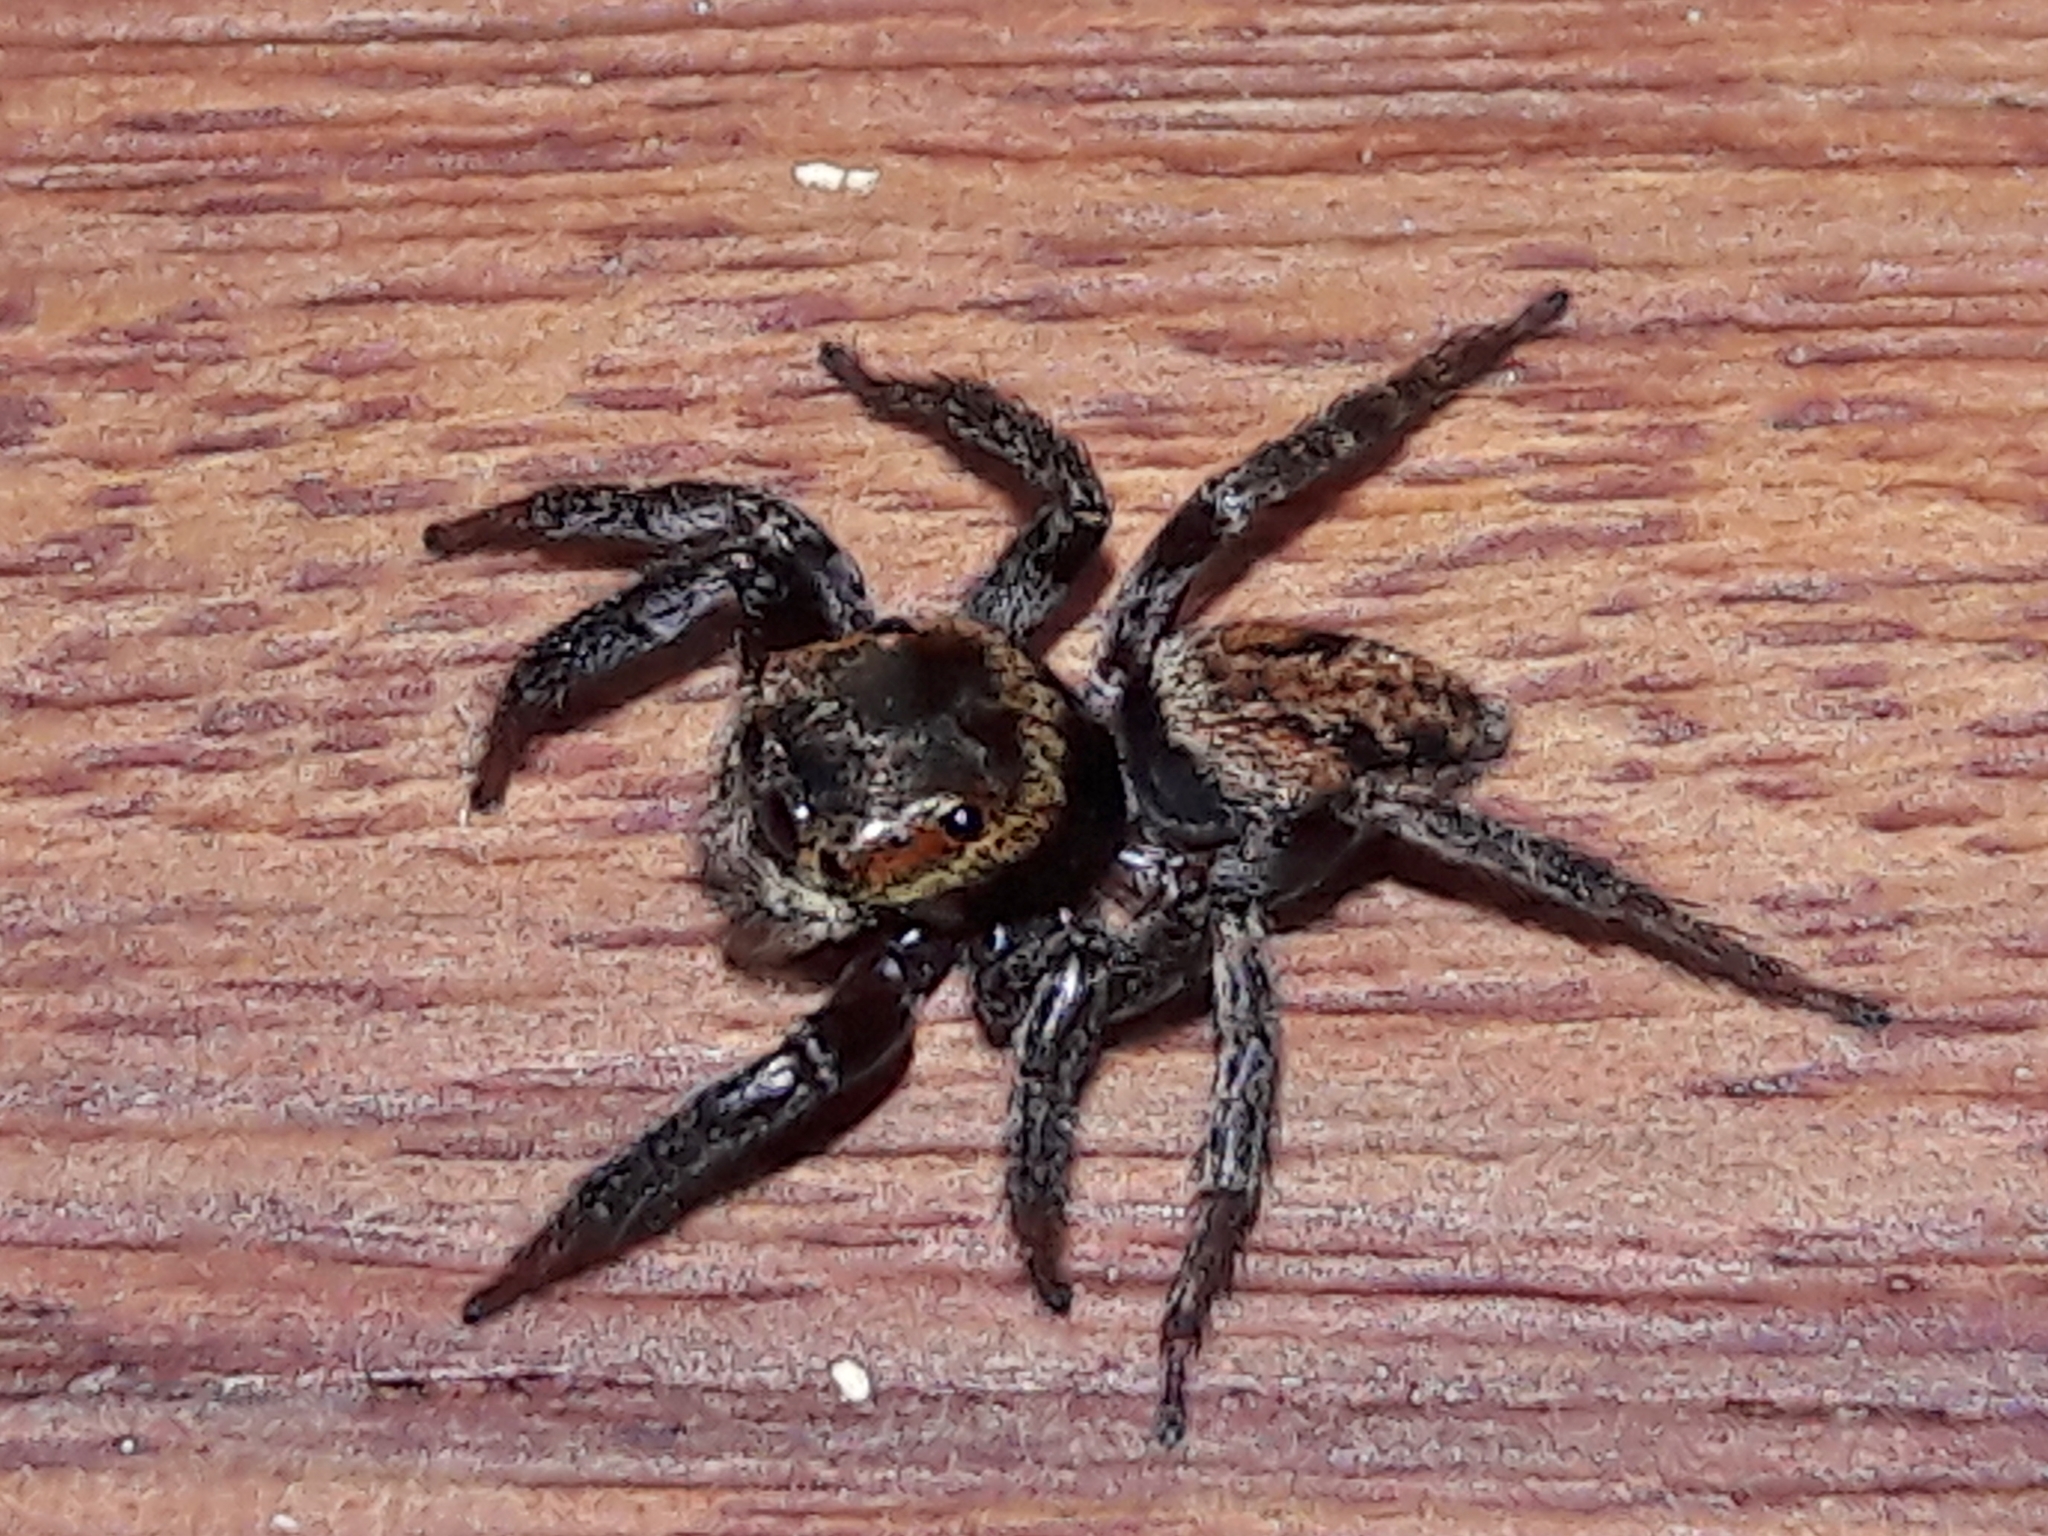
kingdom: Animalia
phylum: Arthropoda
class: Arachnida
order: Araneae
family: Salticidae
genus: Hasarius
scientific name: Hasarius adansoni
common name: Jumping spider
